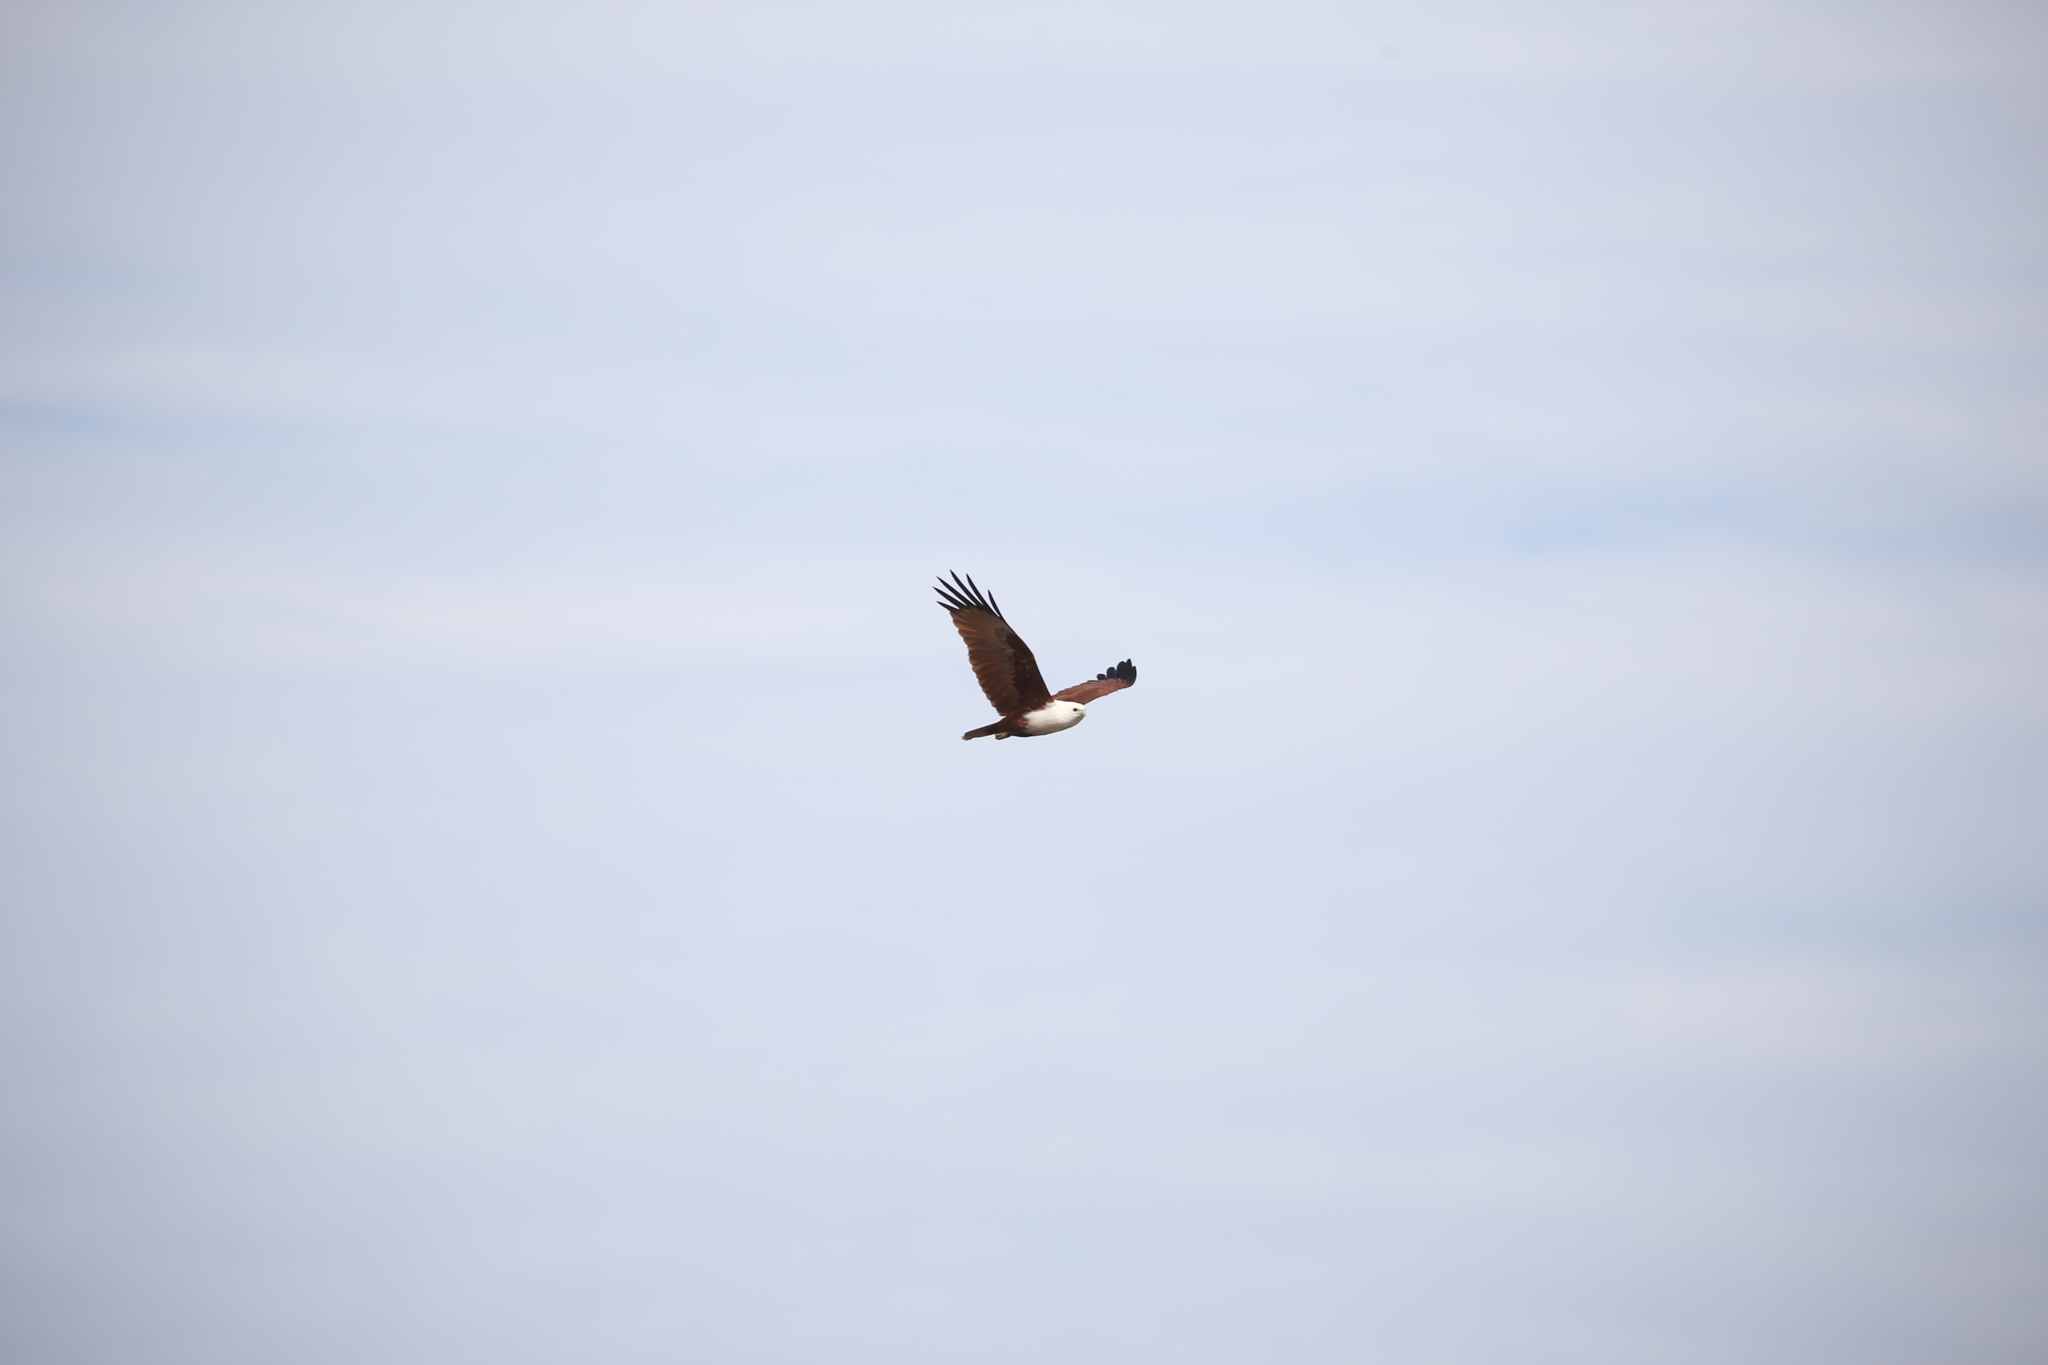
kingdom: Animalia
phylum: Chordata
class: Aves
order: Accipitriformes
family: Accipitridae
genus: Haliastur
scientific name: Haliastur indus
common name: Brahminy kite
